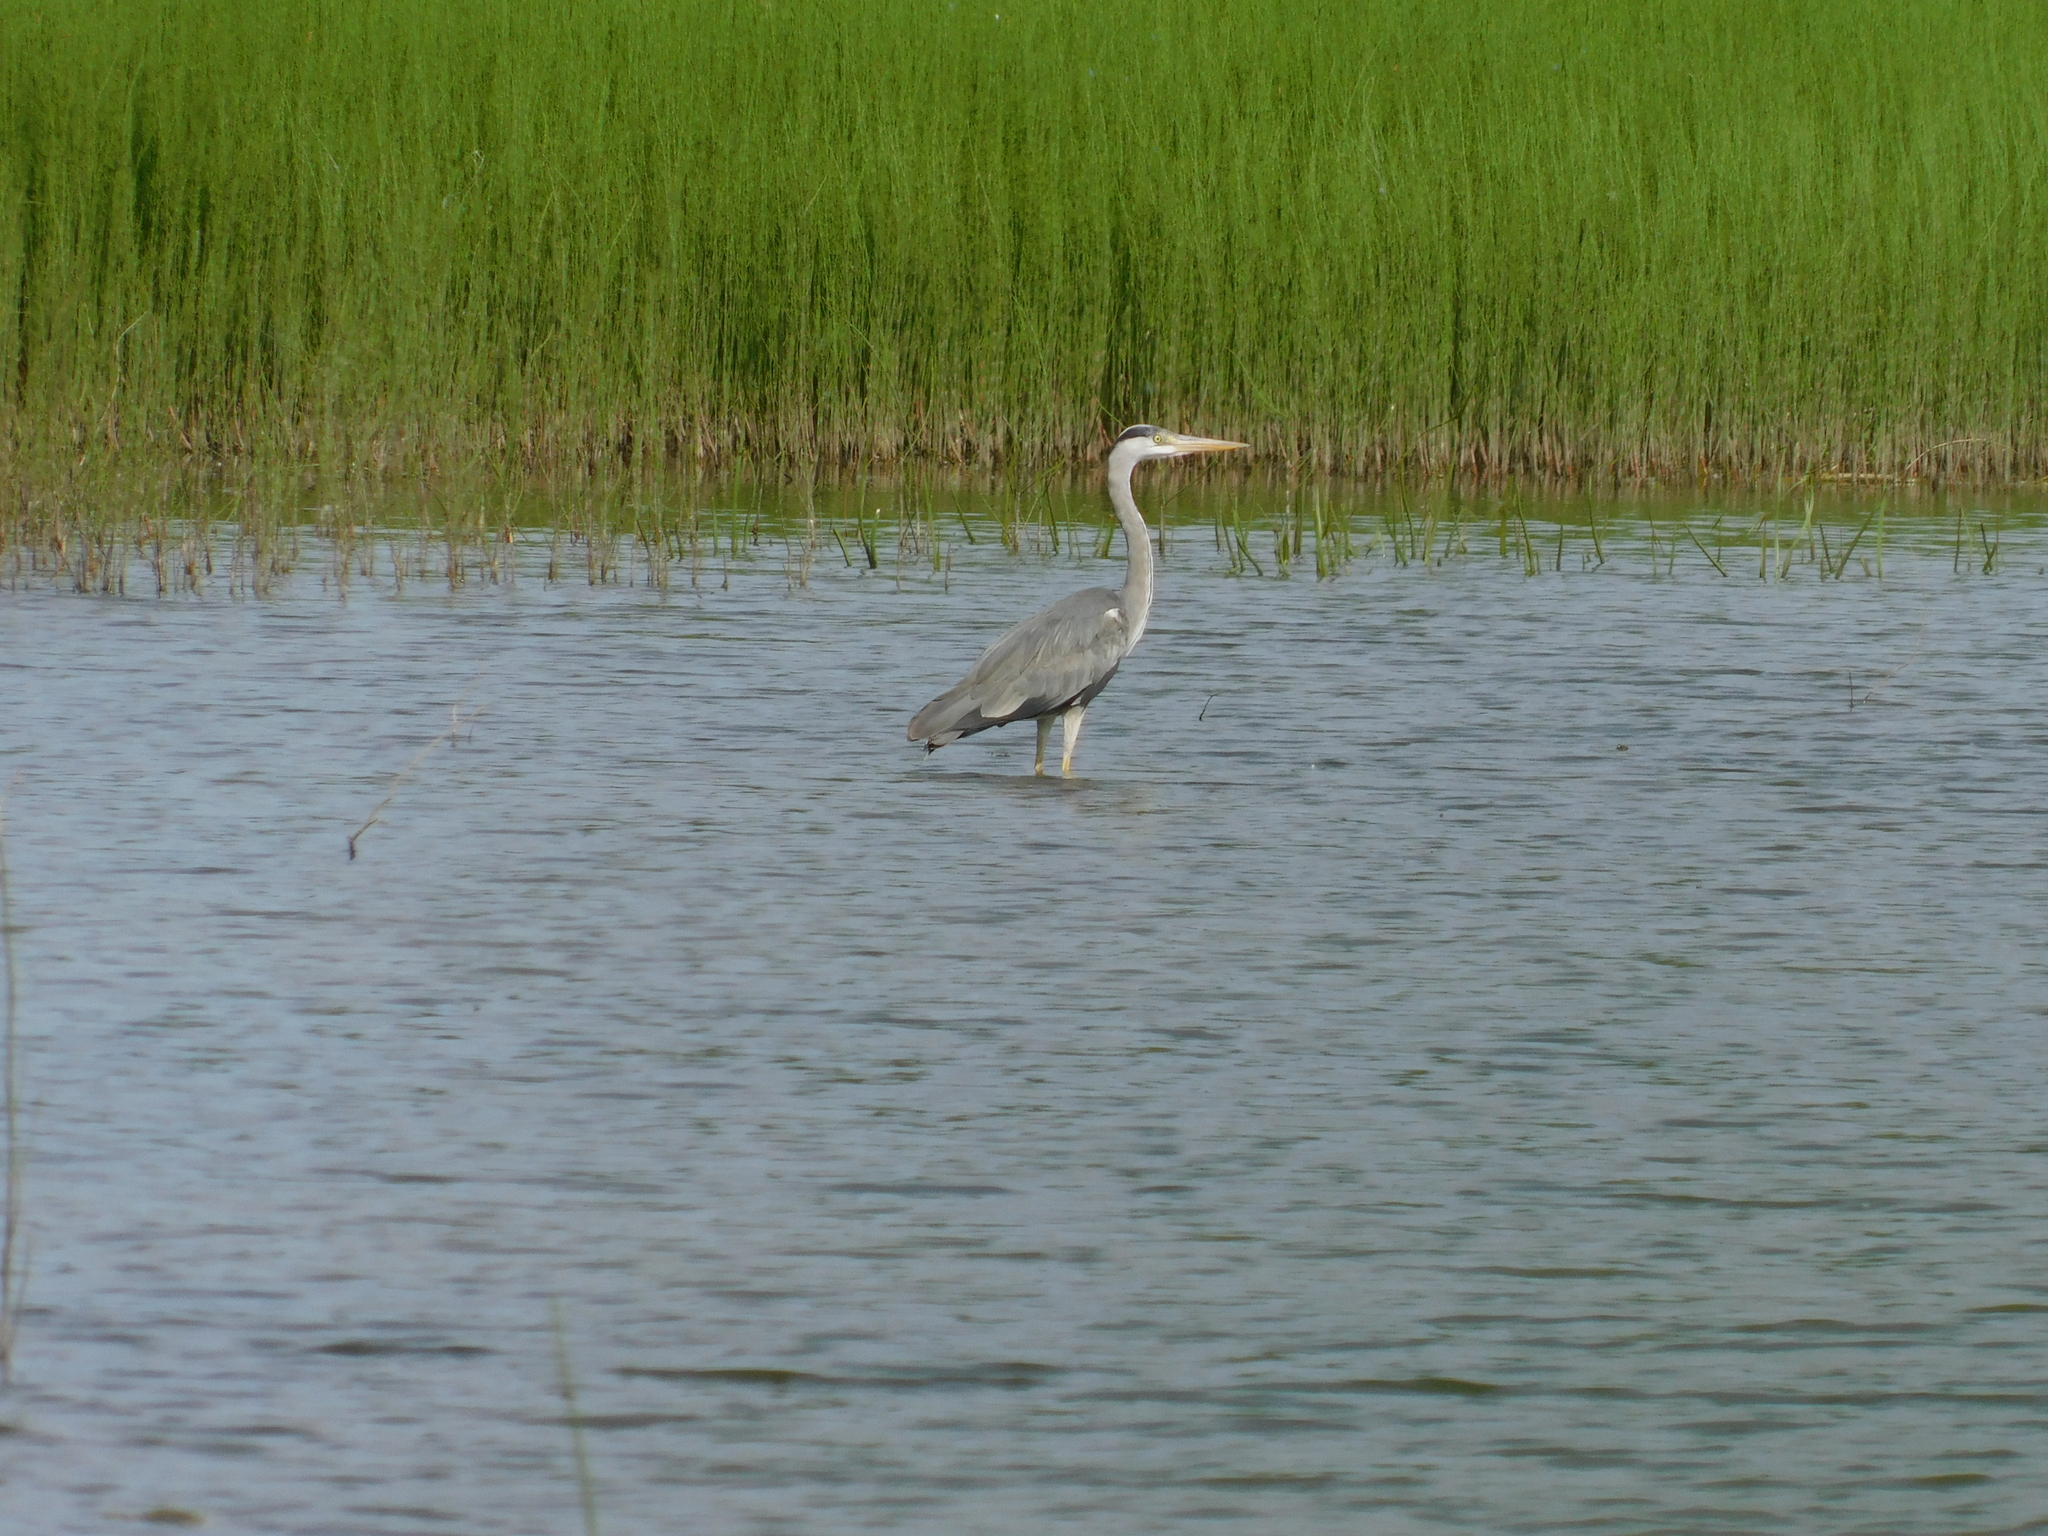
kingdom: Animalia
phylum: Chordata
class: Aves
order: Pelecaniformes
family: Ardeidae
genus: Ardea
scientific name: Ardea cinerea
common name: Grey heron
